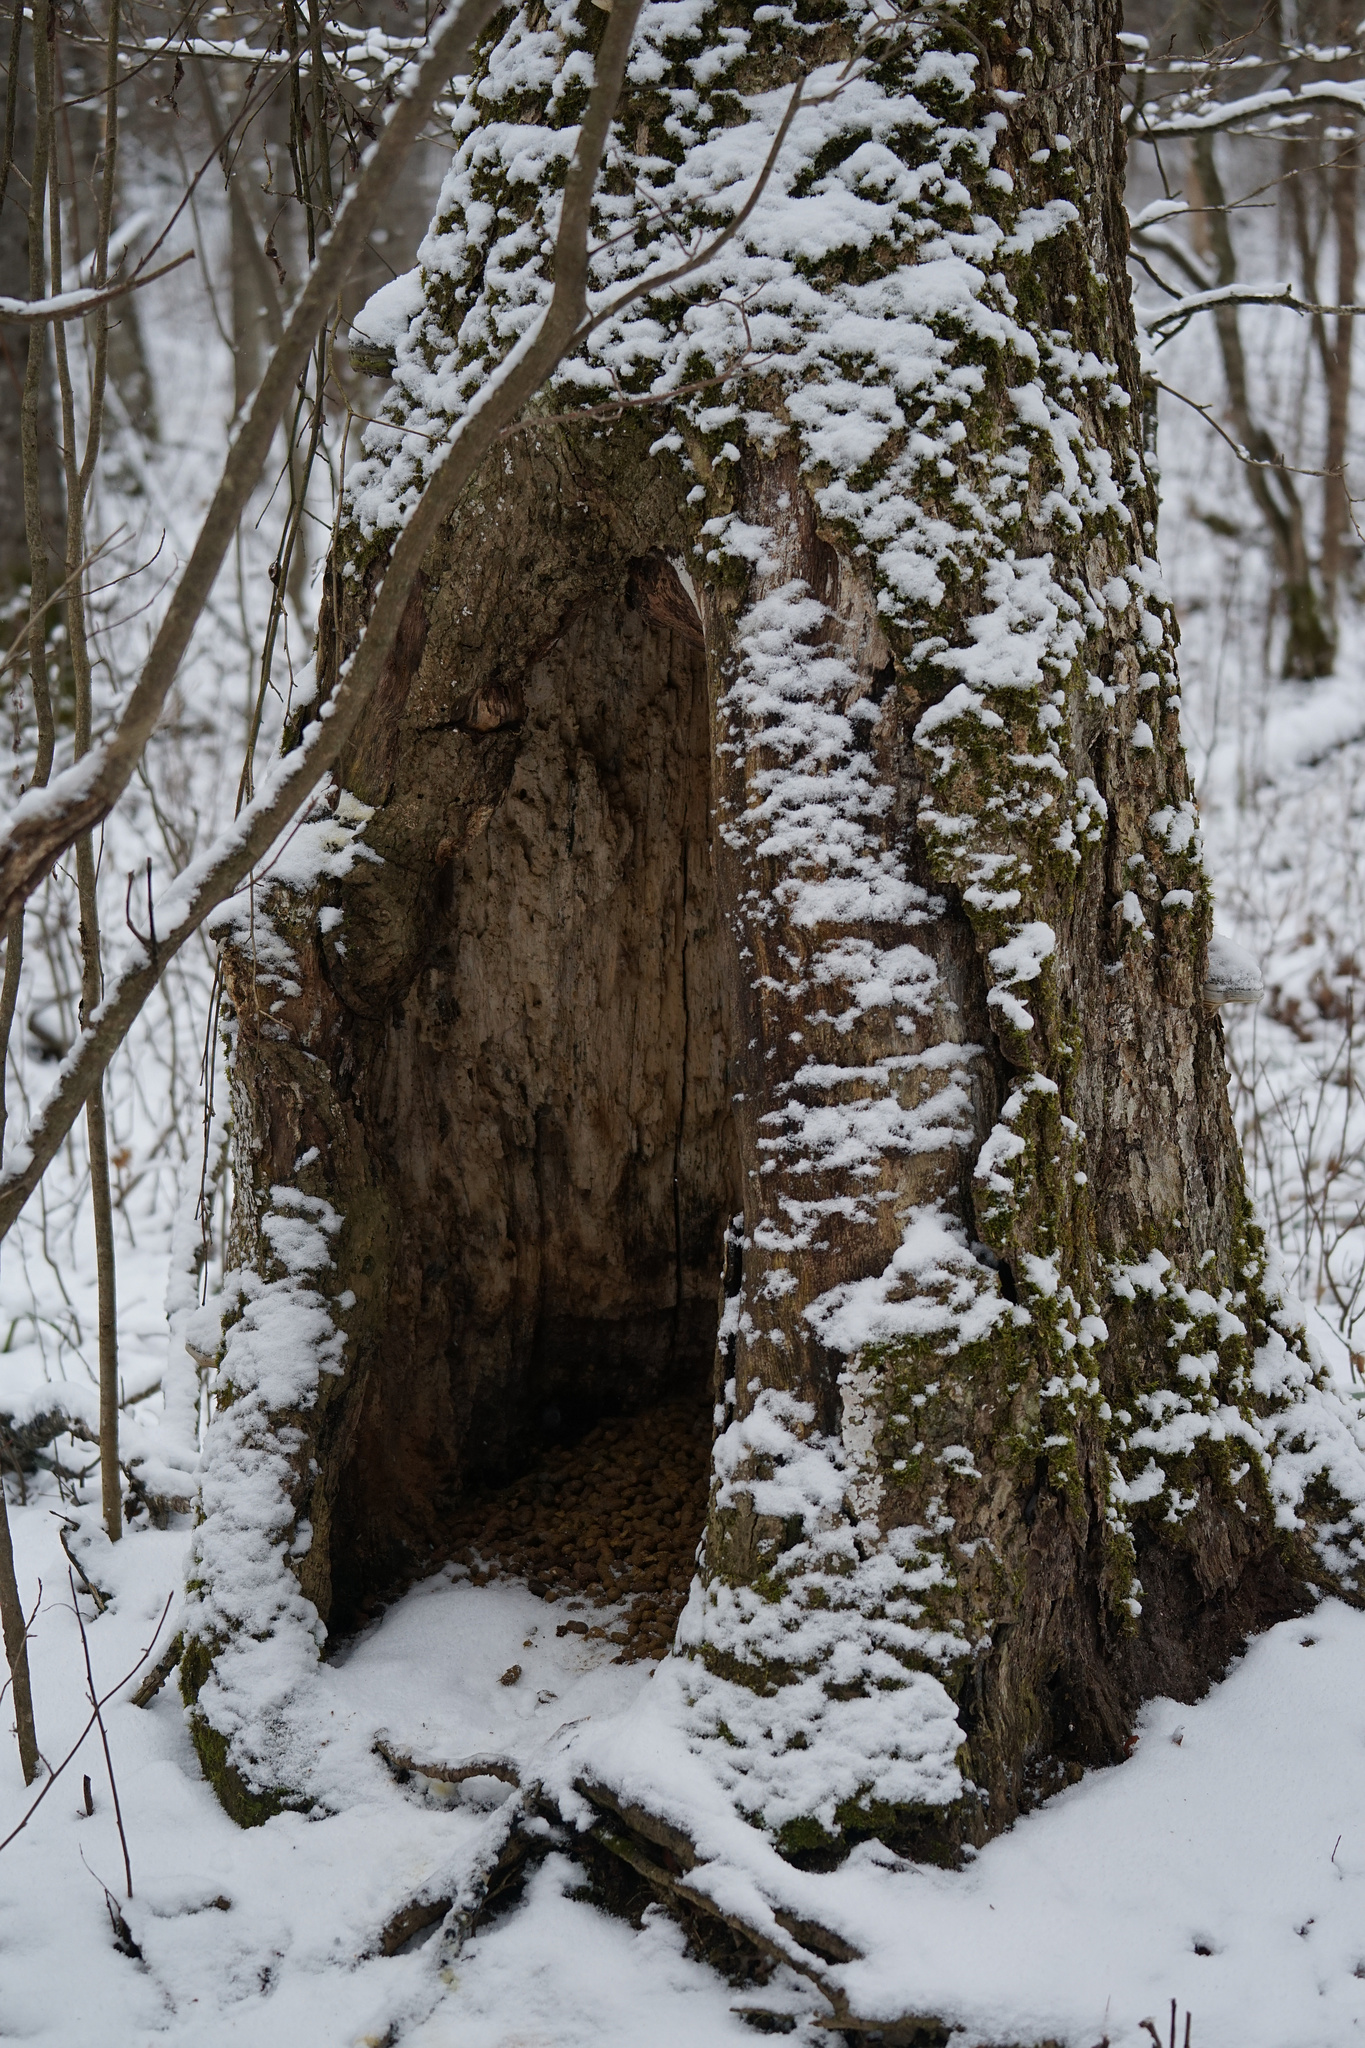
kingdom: Animalia
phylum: Chordata
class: Mammalia
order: Rodentia
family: Erethizontidae
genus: Erethizon
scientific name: Erethizon dorsatus
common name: North american porcupine
